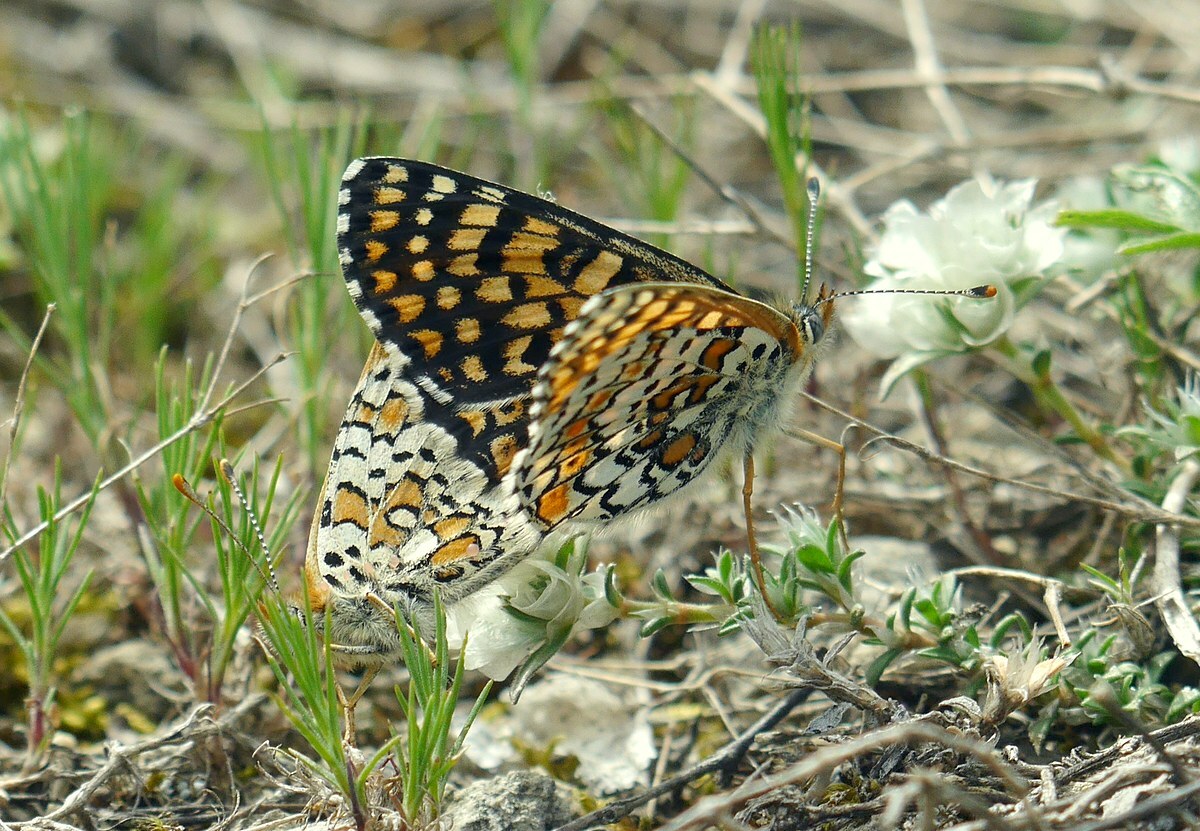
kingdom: Animalia
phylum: Arthropoda
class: Insecta
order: Lepidoptera
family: Nymphalidae
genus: Melitaea
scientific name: Melitaea cinxia
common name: Glanville fritillary
